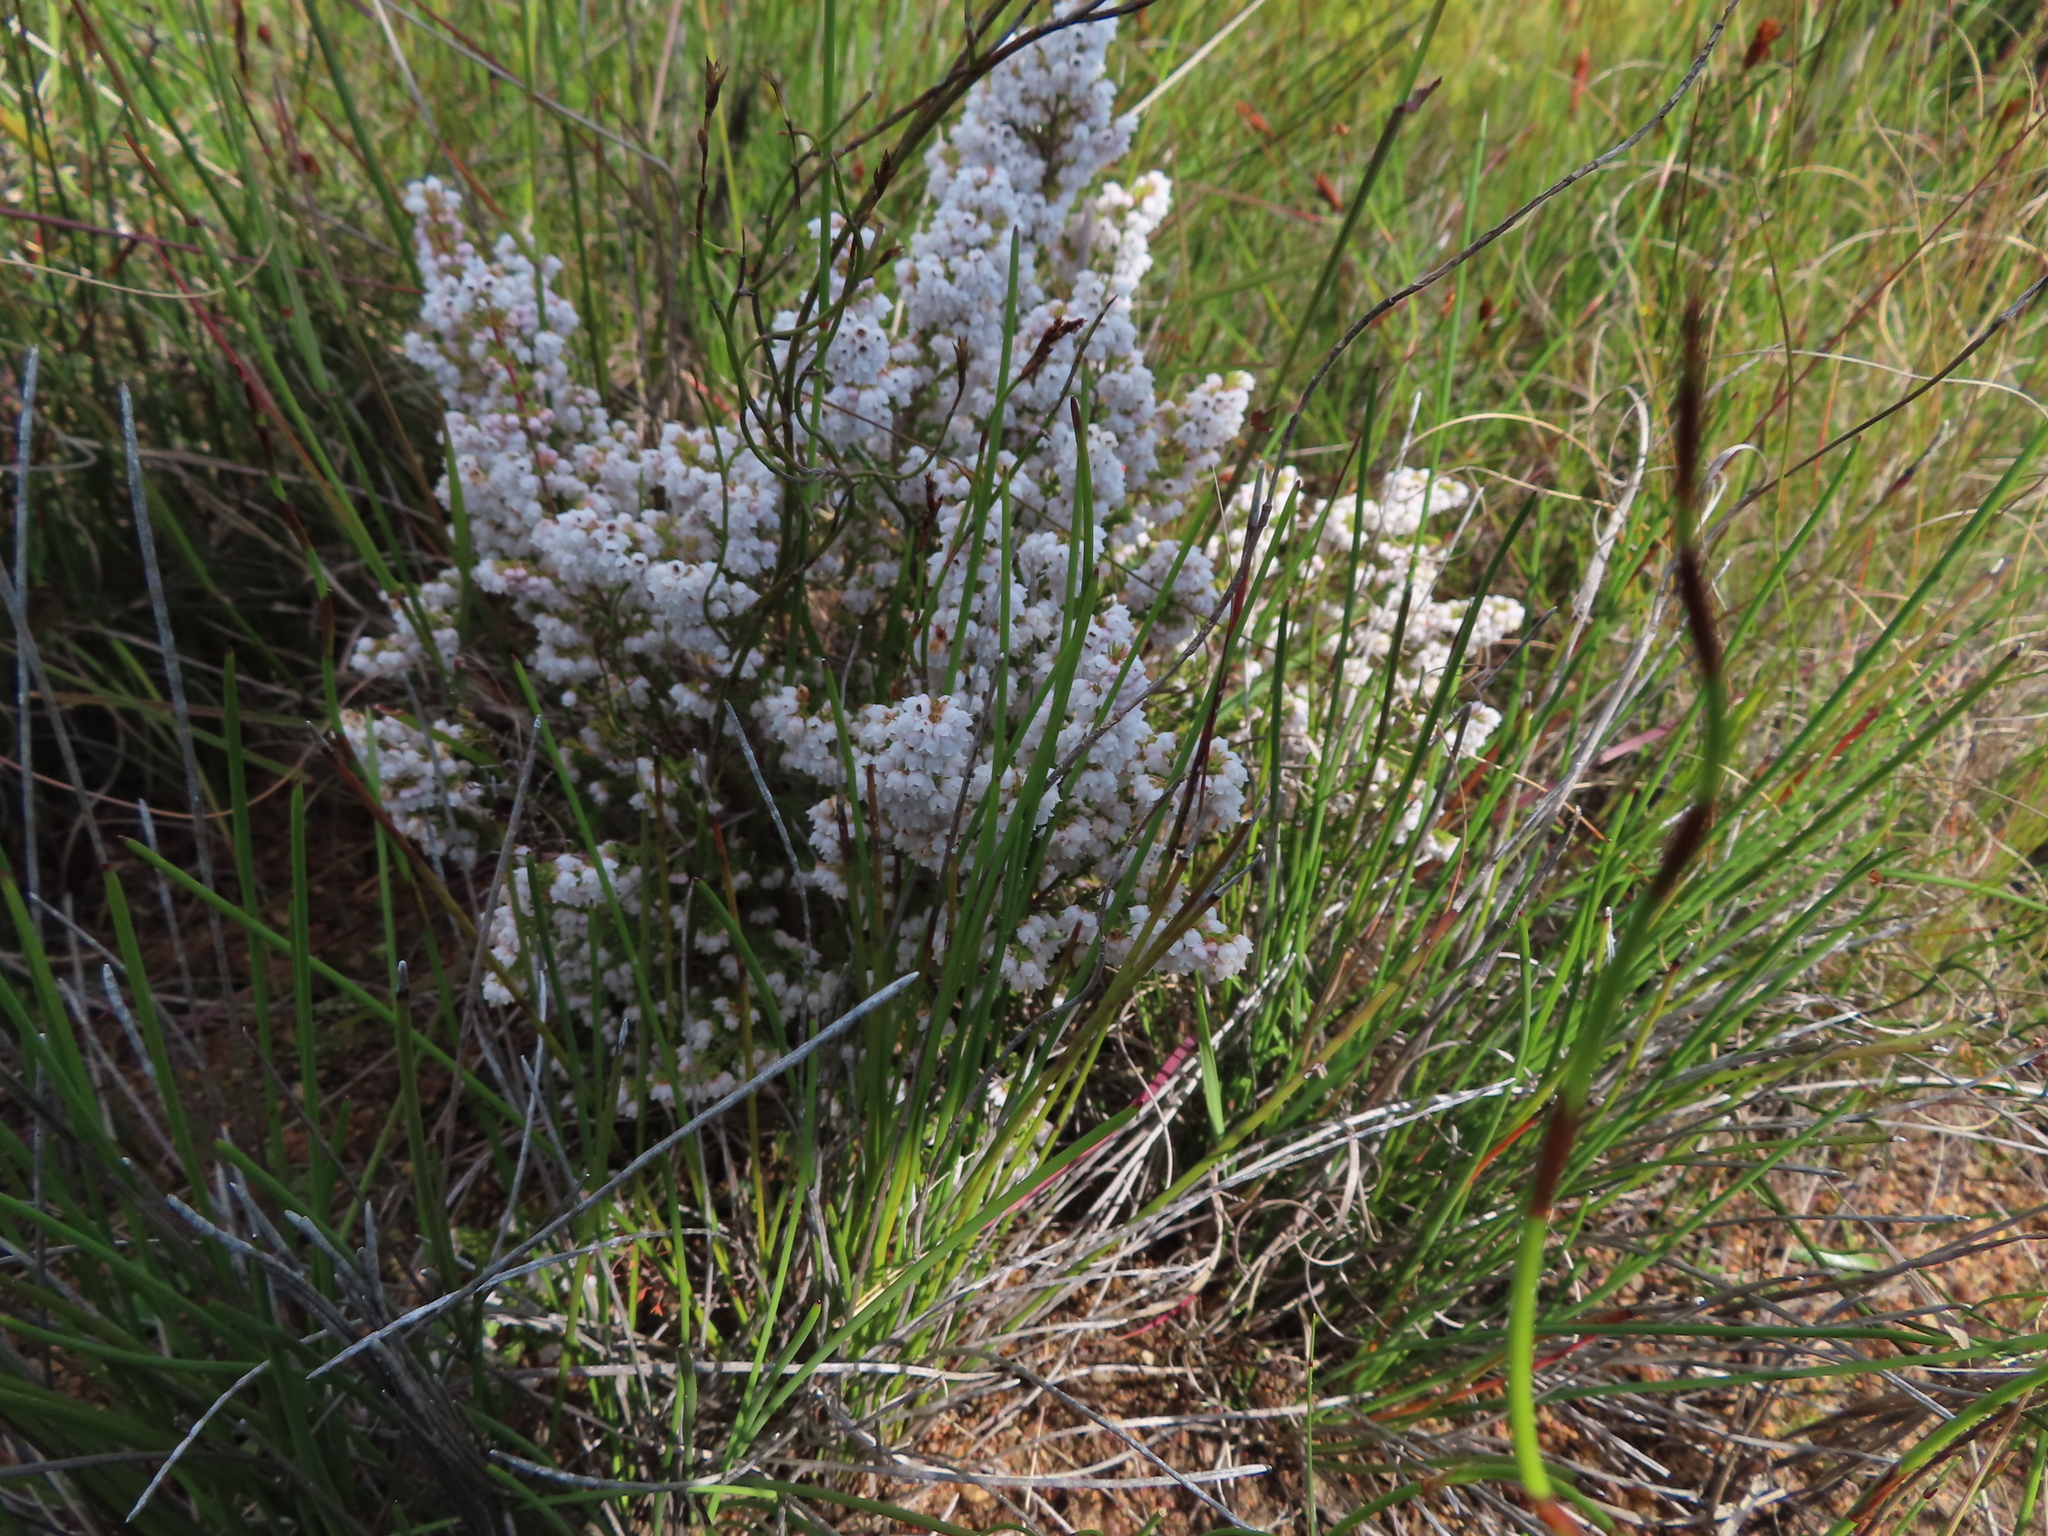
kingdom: Plantae
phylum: Tracheophyta
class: Magnoliopsida
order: Ericales
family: Ericaceae
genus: Erica
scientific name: Erica quadrangularis
